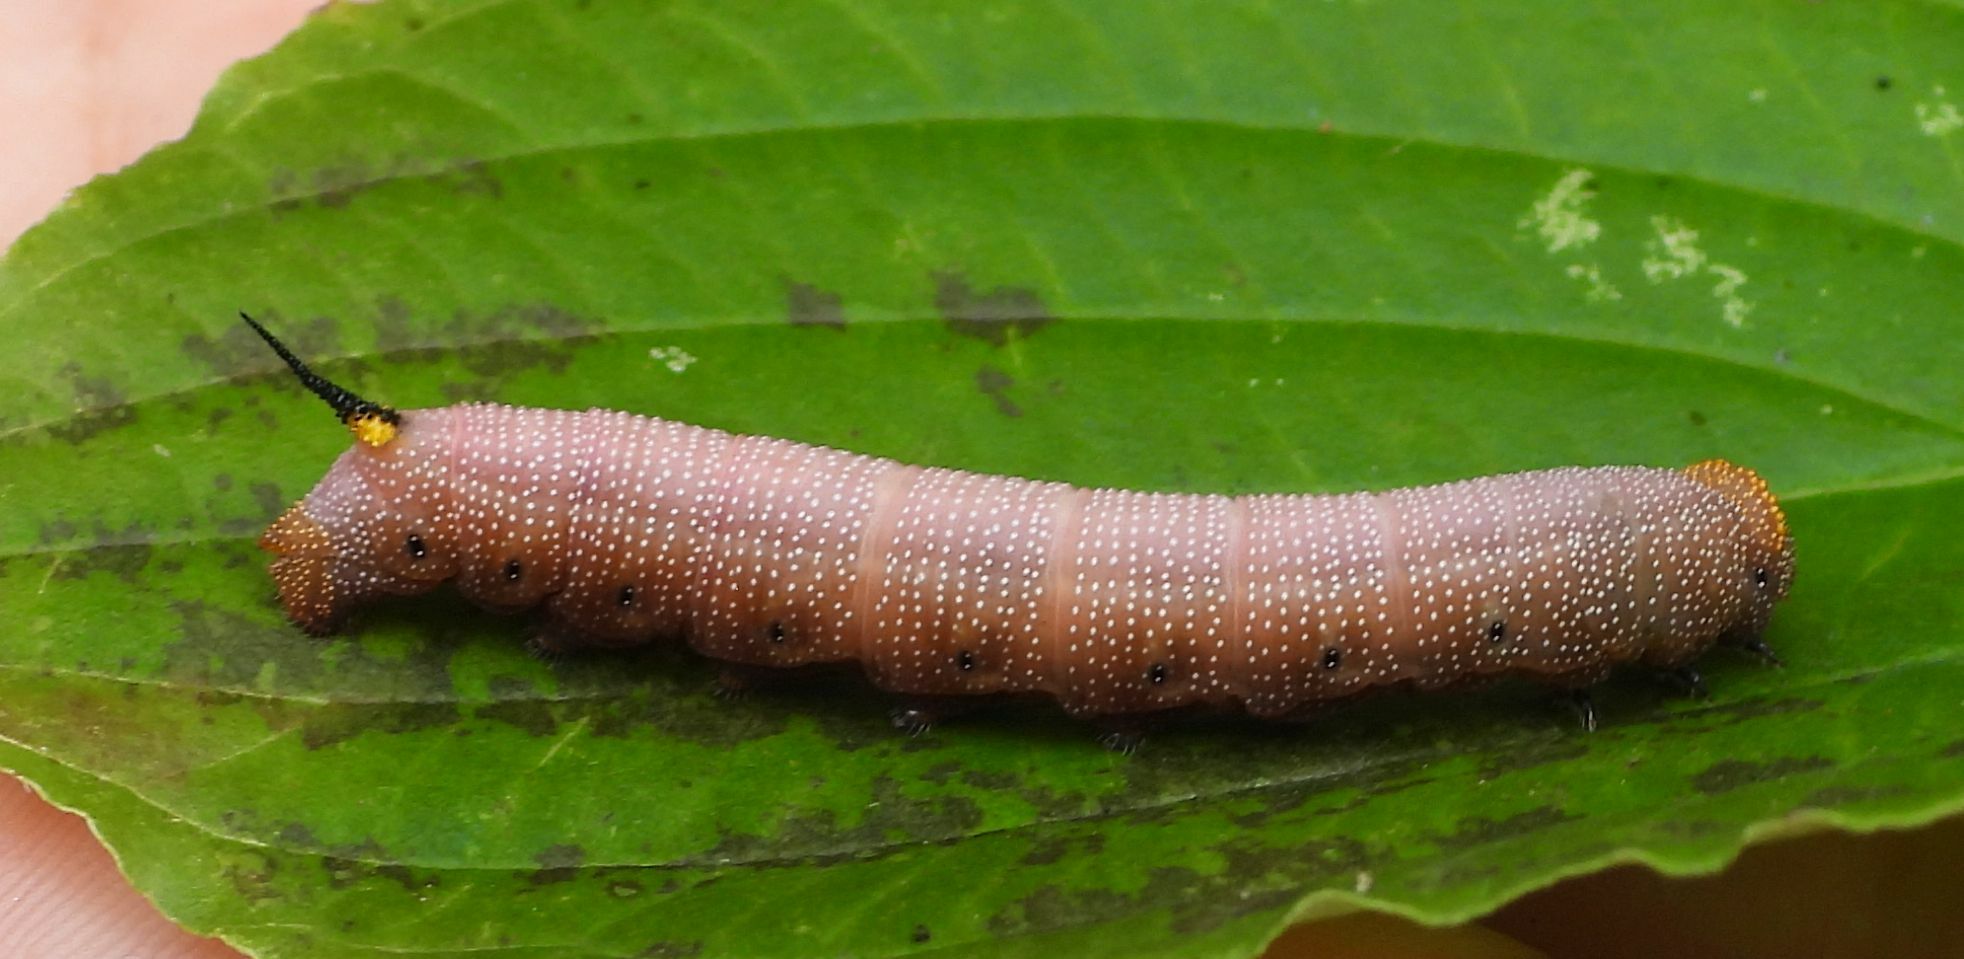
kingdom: Animalia
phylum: Arthropoda
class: Insecta
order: Lepidoptera
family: Sphingidae
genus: Hemaris
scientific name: Hemaris diffinis
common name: Bumblebee moth
